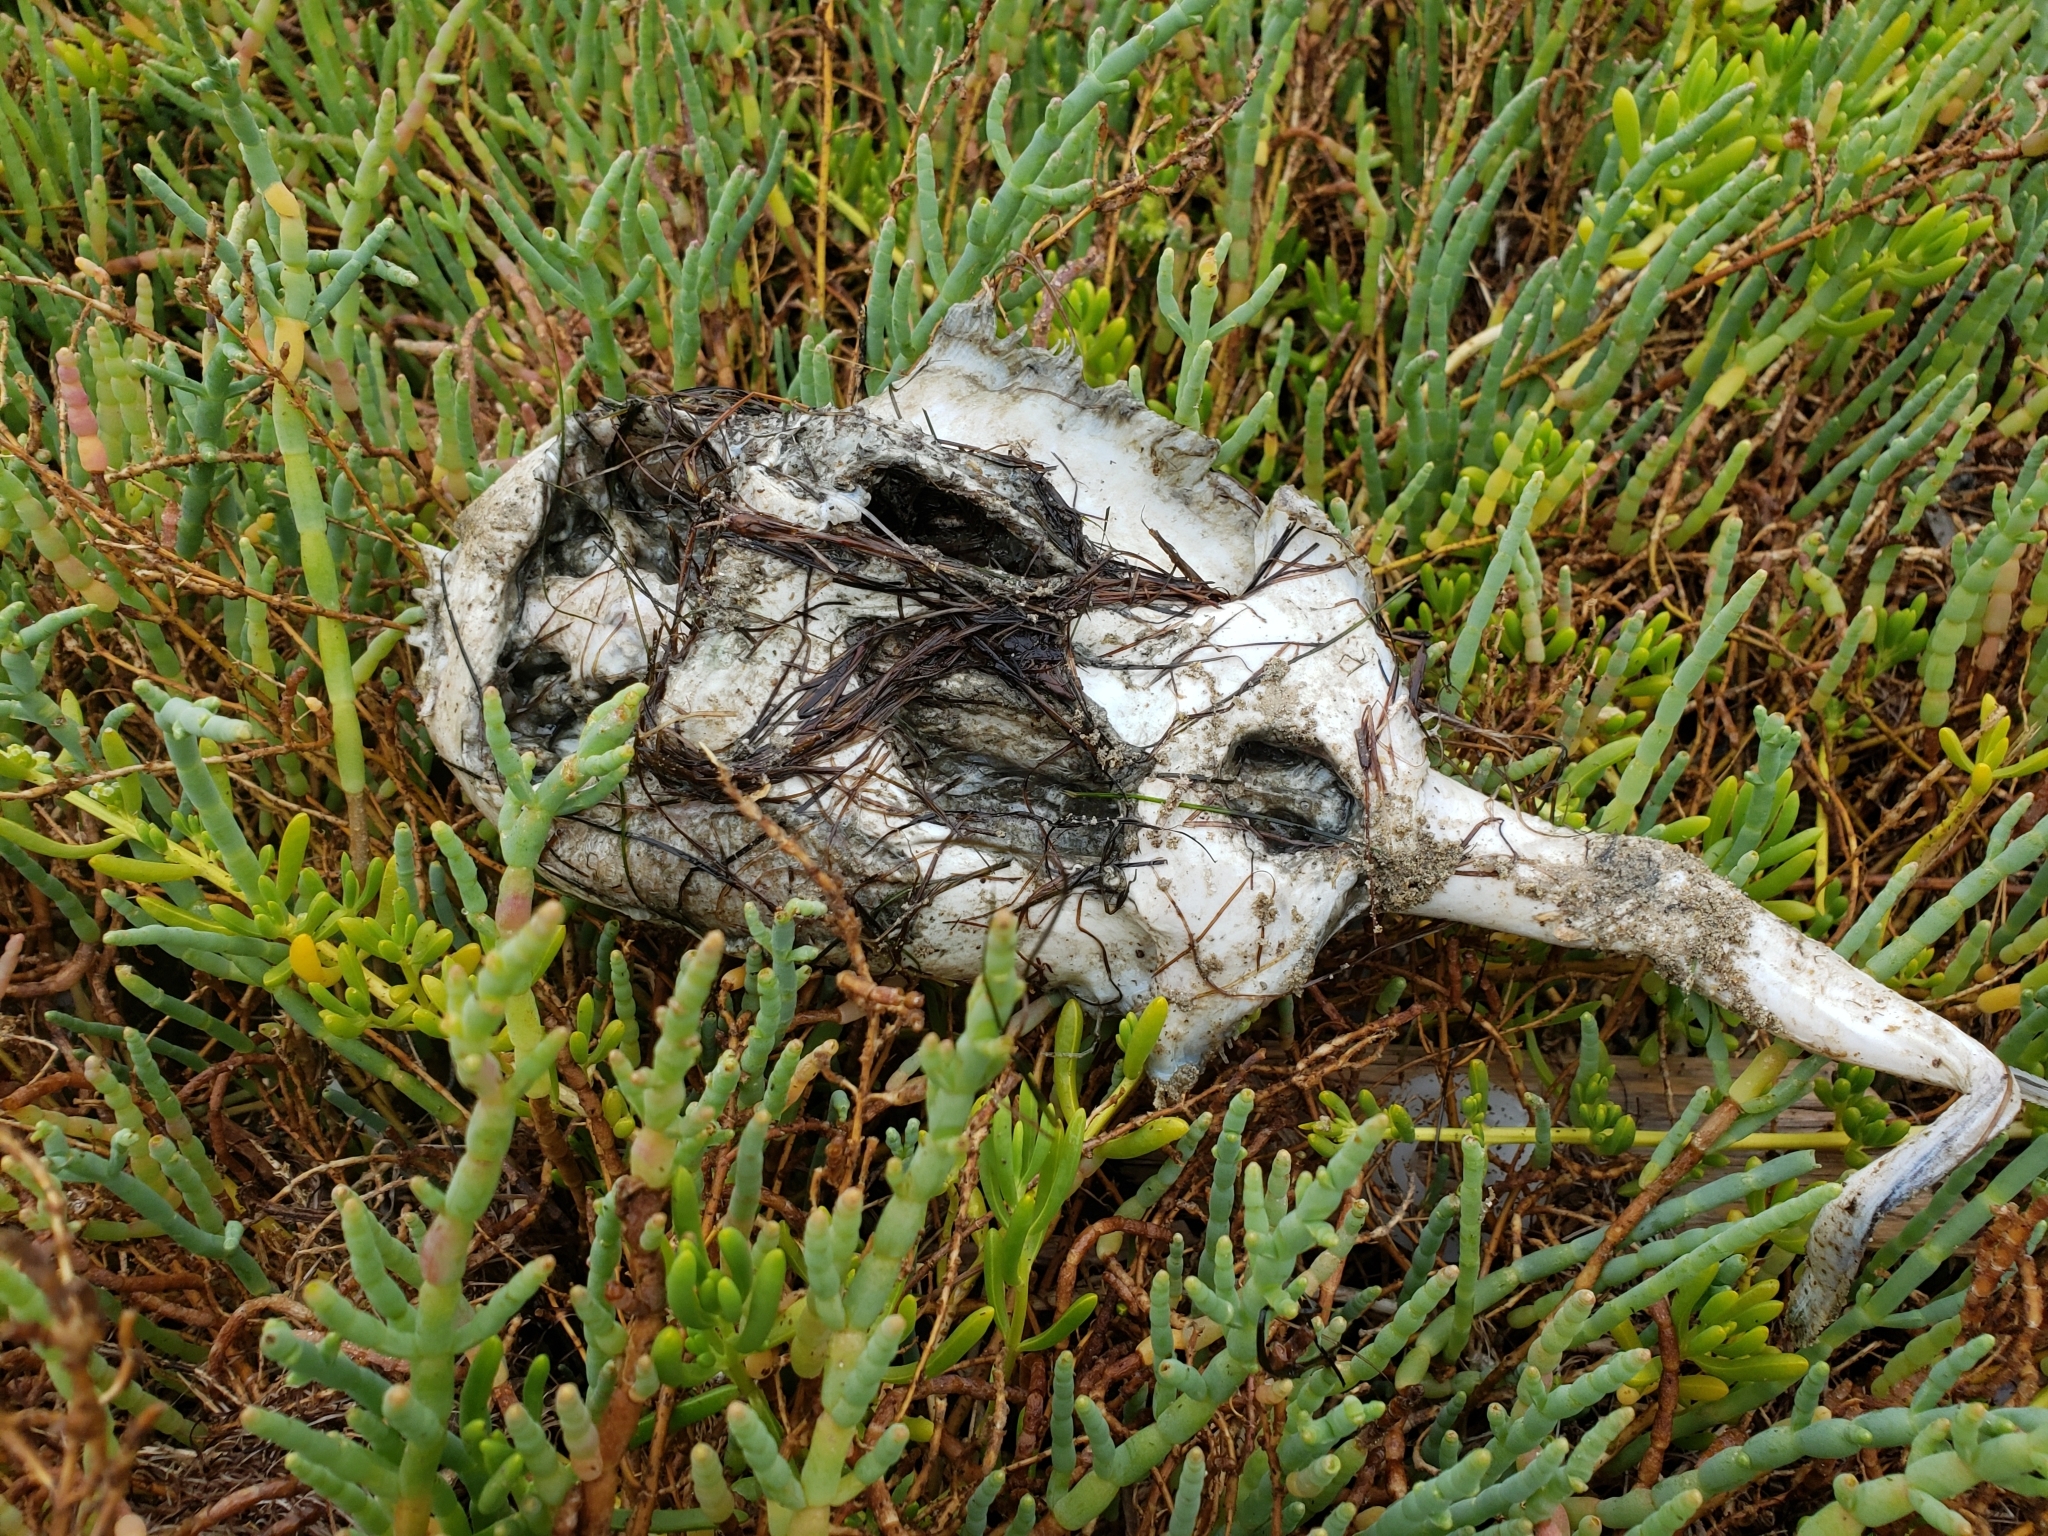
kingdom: Animalia
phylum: Chordata
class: Elasmobranchii
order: Myliobatiformes
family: Urolophidae
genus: Urolophus
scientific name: Urolophus halleri
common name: Round stingray
